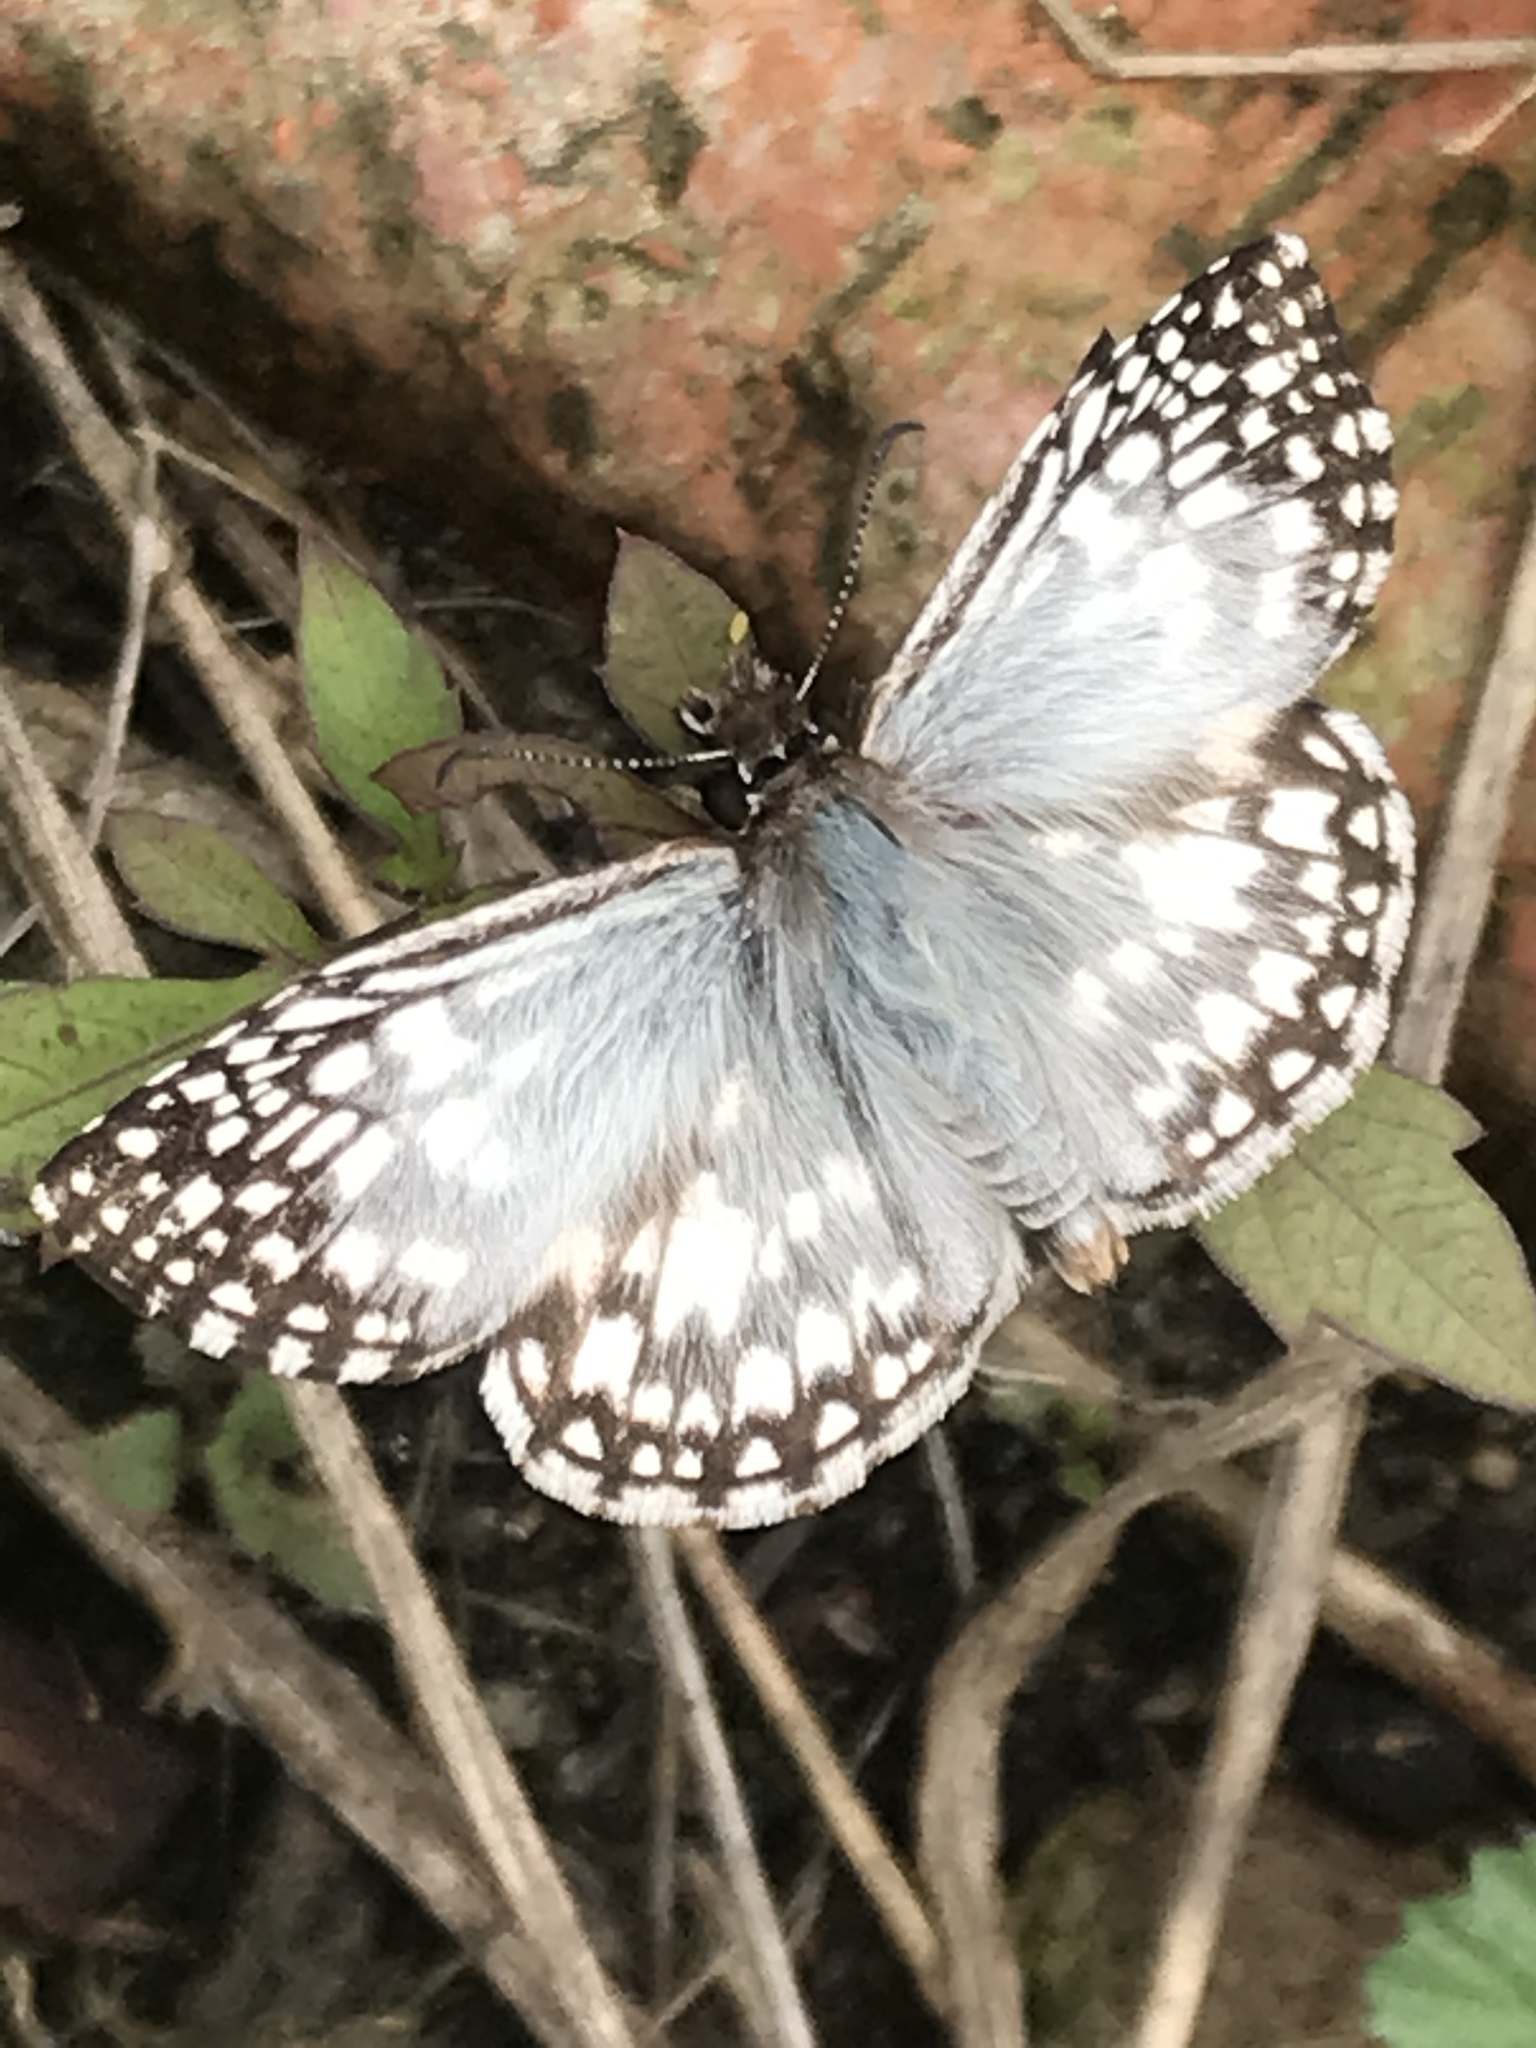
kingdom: Animalia
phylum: Arthropoda
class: Insecta
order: Lepidoptera
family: Hesperiidae
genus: Pyrgus
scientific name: Pyrgus oileus
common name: Tropical checkered-skipper
